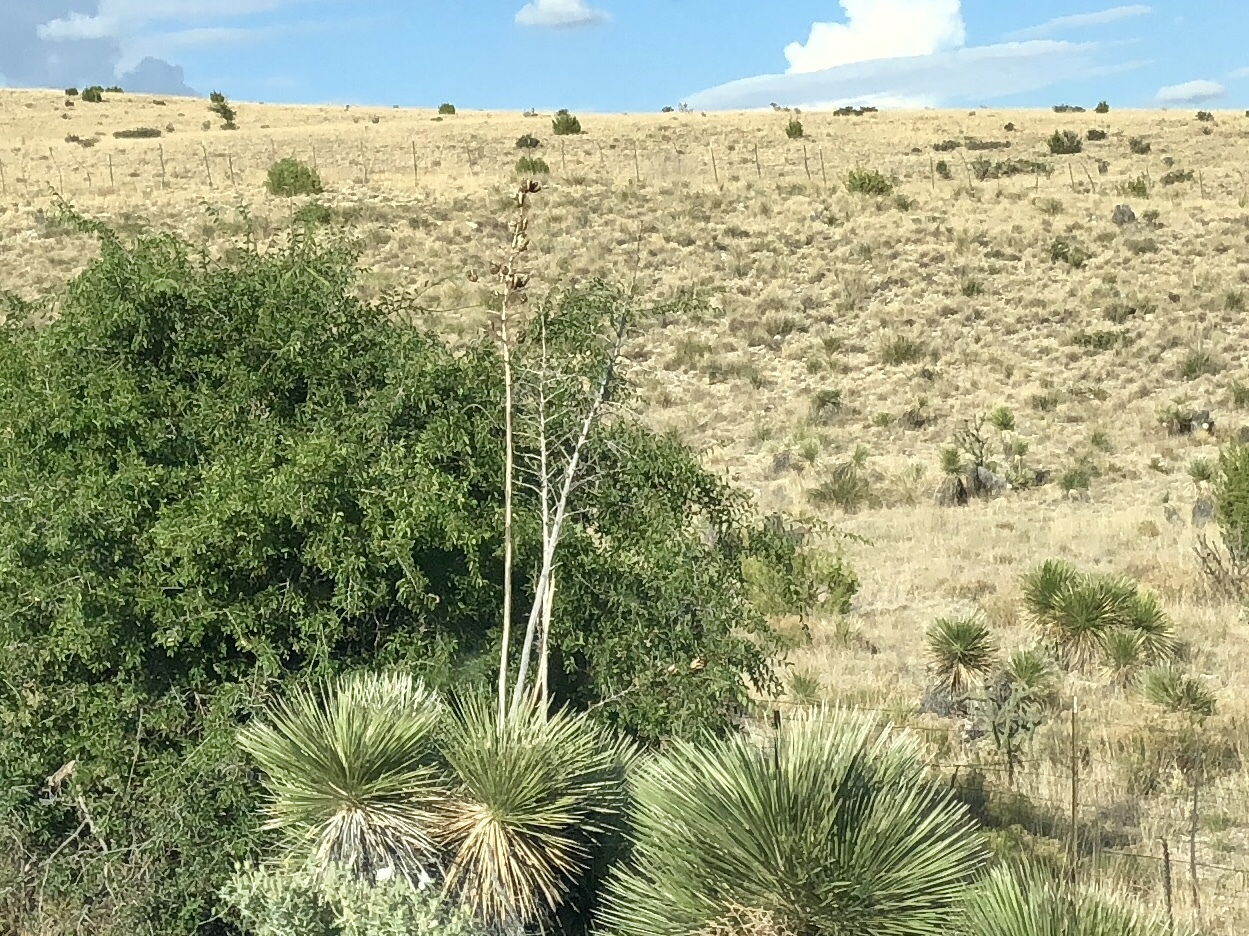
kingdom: Plantae
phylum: Tracheophyta
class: Liliopsida
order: Asparagales
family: Asparagaceae
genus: Yucca
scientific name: Yucca elata
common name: Palmella
